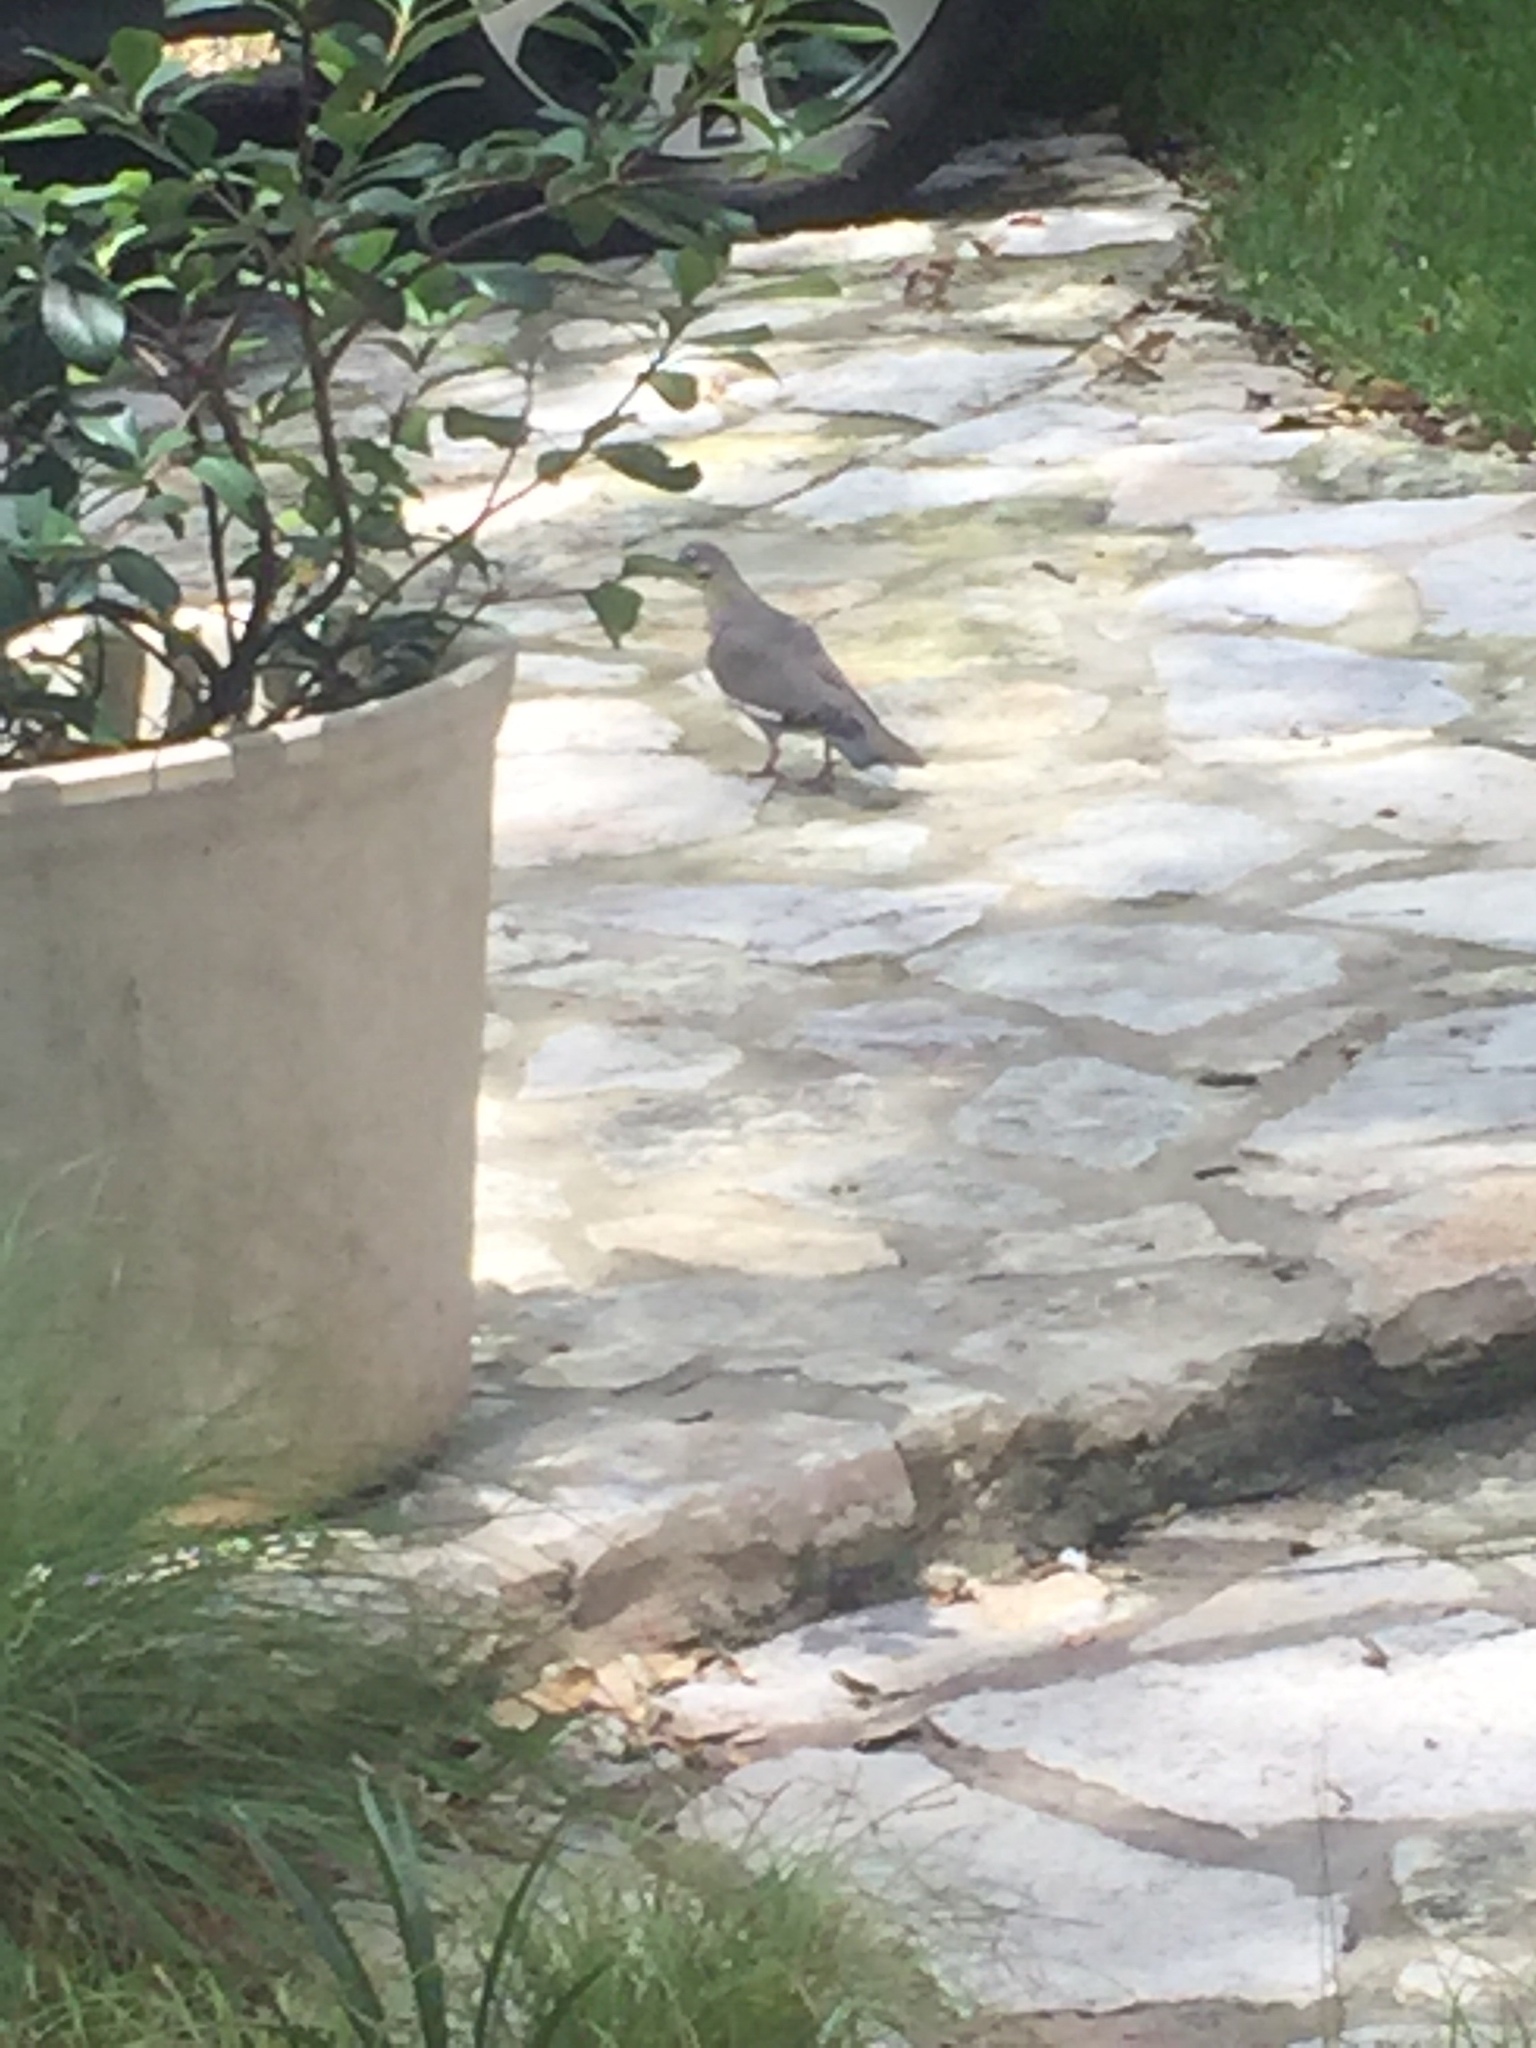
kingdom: Animalia
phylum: Chordata
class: Aves
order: Columbiformes
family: Columbidae
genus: Zenaida
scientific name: Zenaida asiatica
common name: White-winged dove
